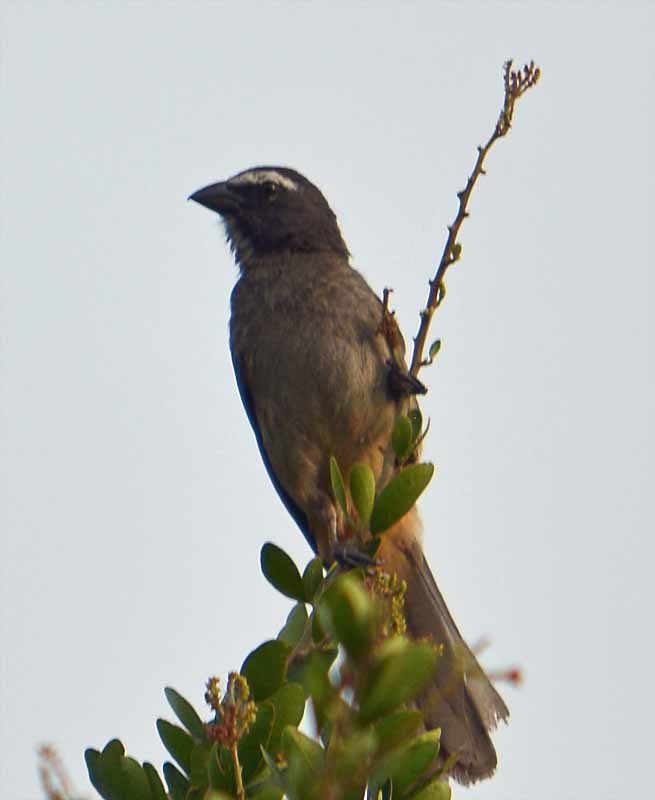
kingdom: Animalia
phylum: Chordata
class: Aves
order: Passeriformes
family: Thraupidae
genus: Saltator
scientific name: Saltator grandis
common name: Cinnamon-bellied saltator
